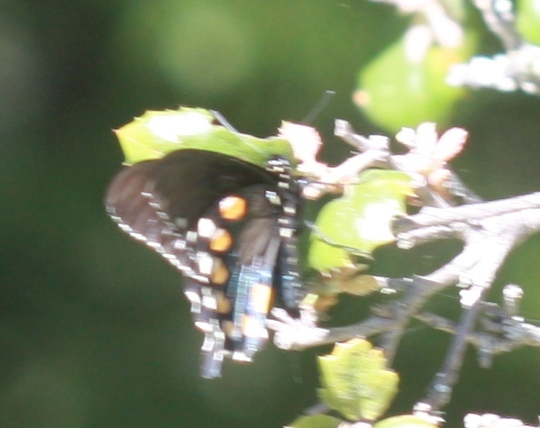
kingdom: Animalia
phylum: Arthropoda
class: Insecta
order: Lepidoptera
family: Papilionidae
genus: Battus
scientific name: Battus philenor
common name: Pipevine swallowtail
